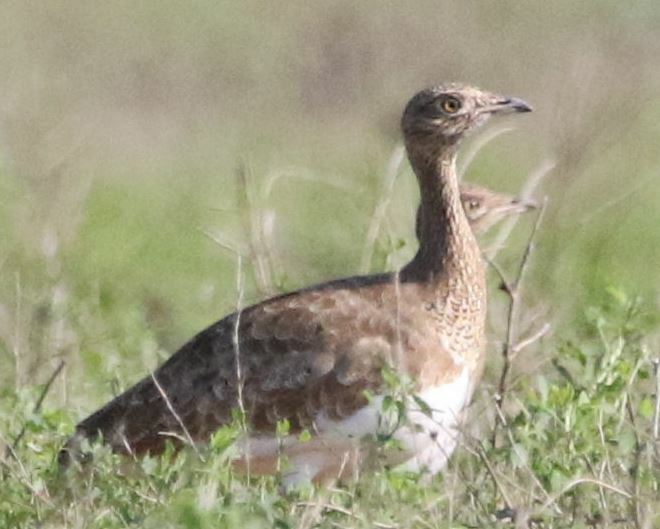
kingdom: Animalia
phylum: Chordata
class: Aves
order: Otidiformes
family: Otididae
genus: Tetrax
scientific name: Tetrax tetrax
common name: Little bustard
